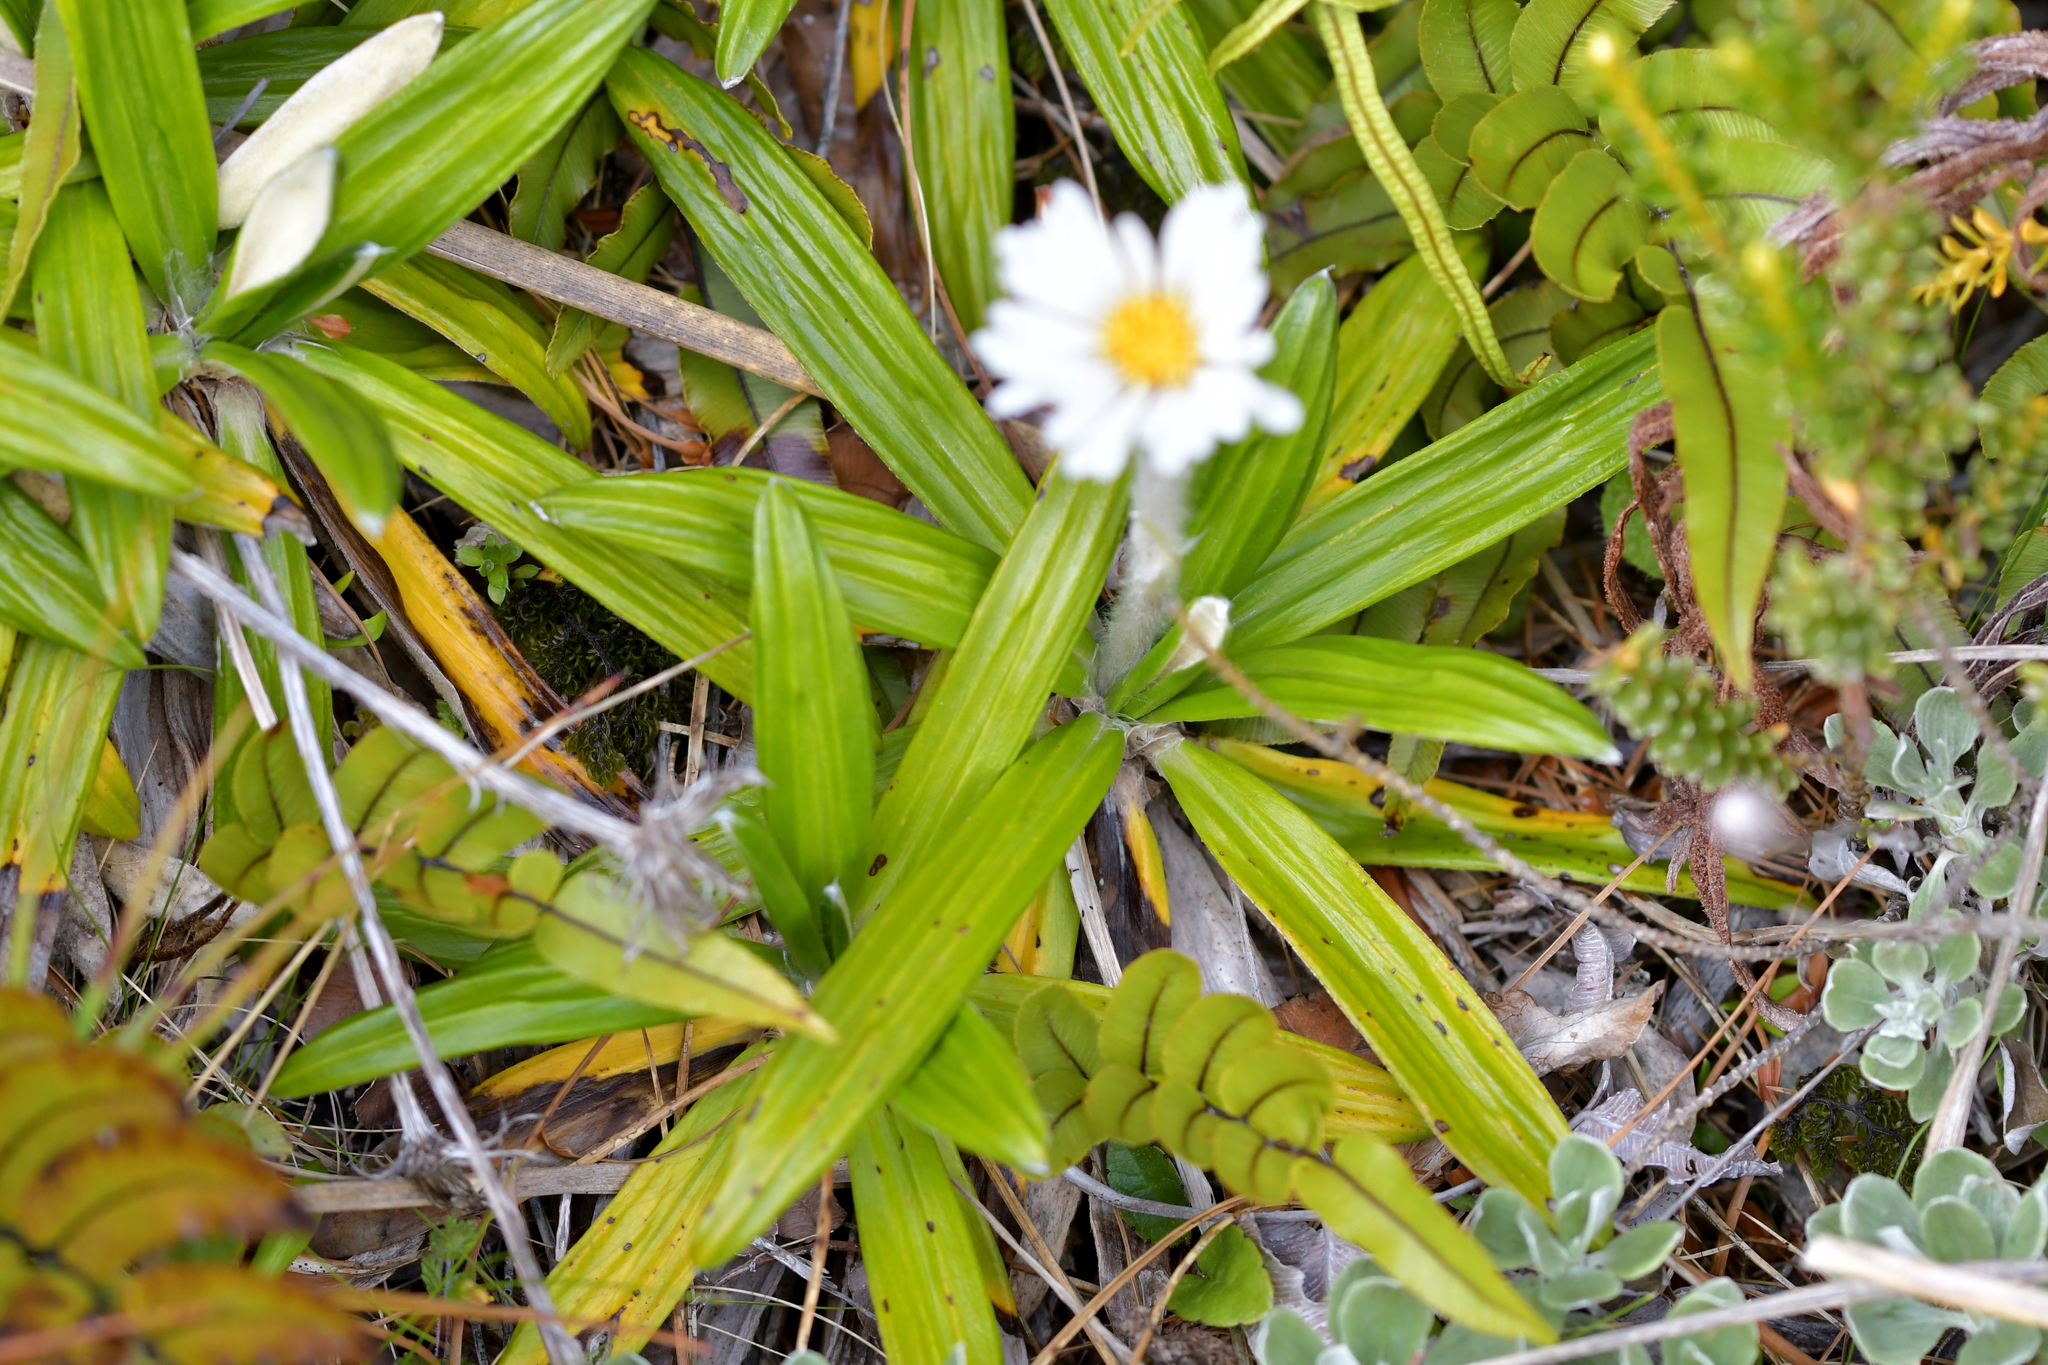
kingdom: Plantae
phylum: Tracheophyta
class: Magnoliopsida
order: Asterales
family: Asteraceae
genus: Celmisia
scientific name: Celmisia spectabilis
